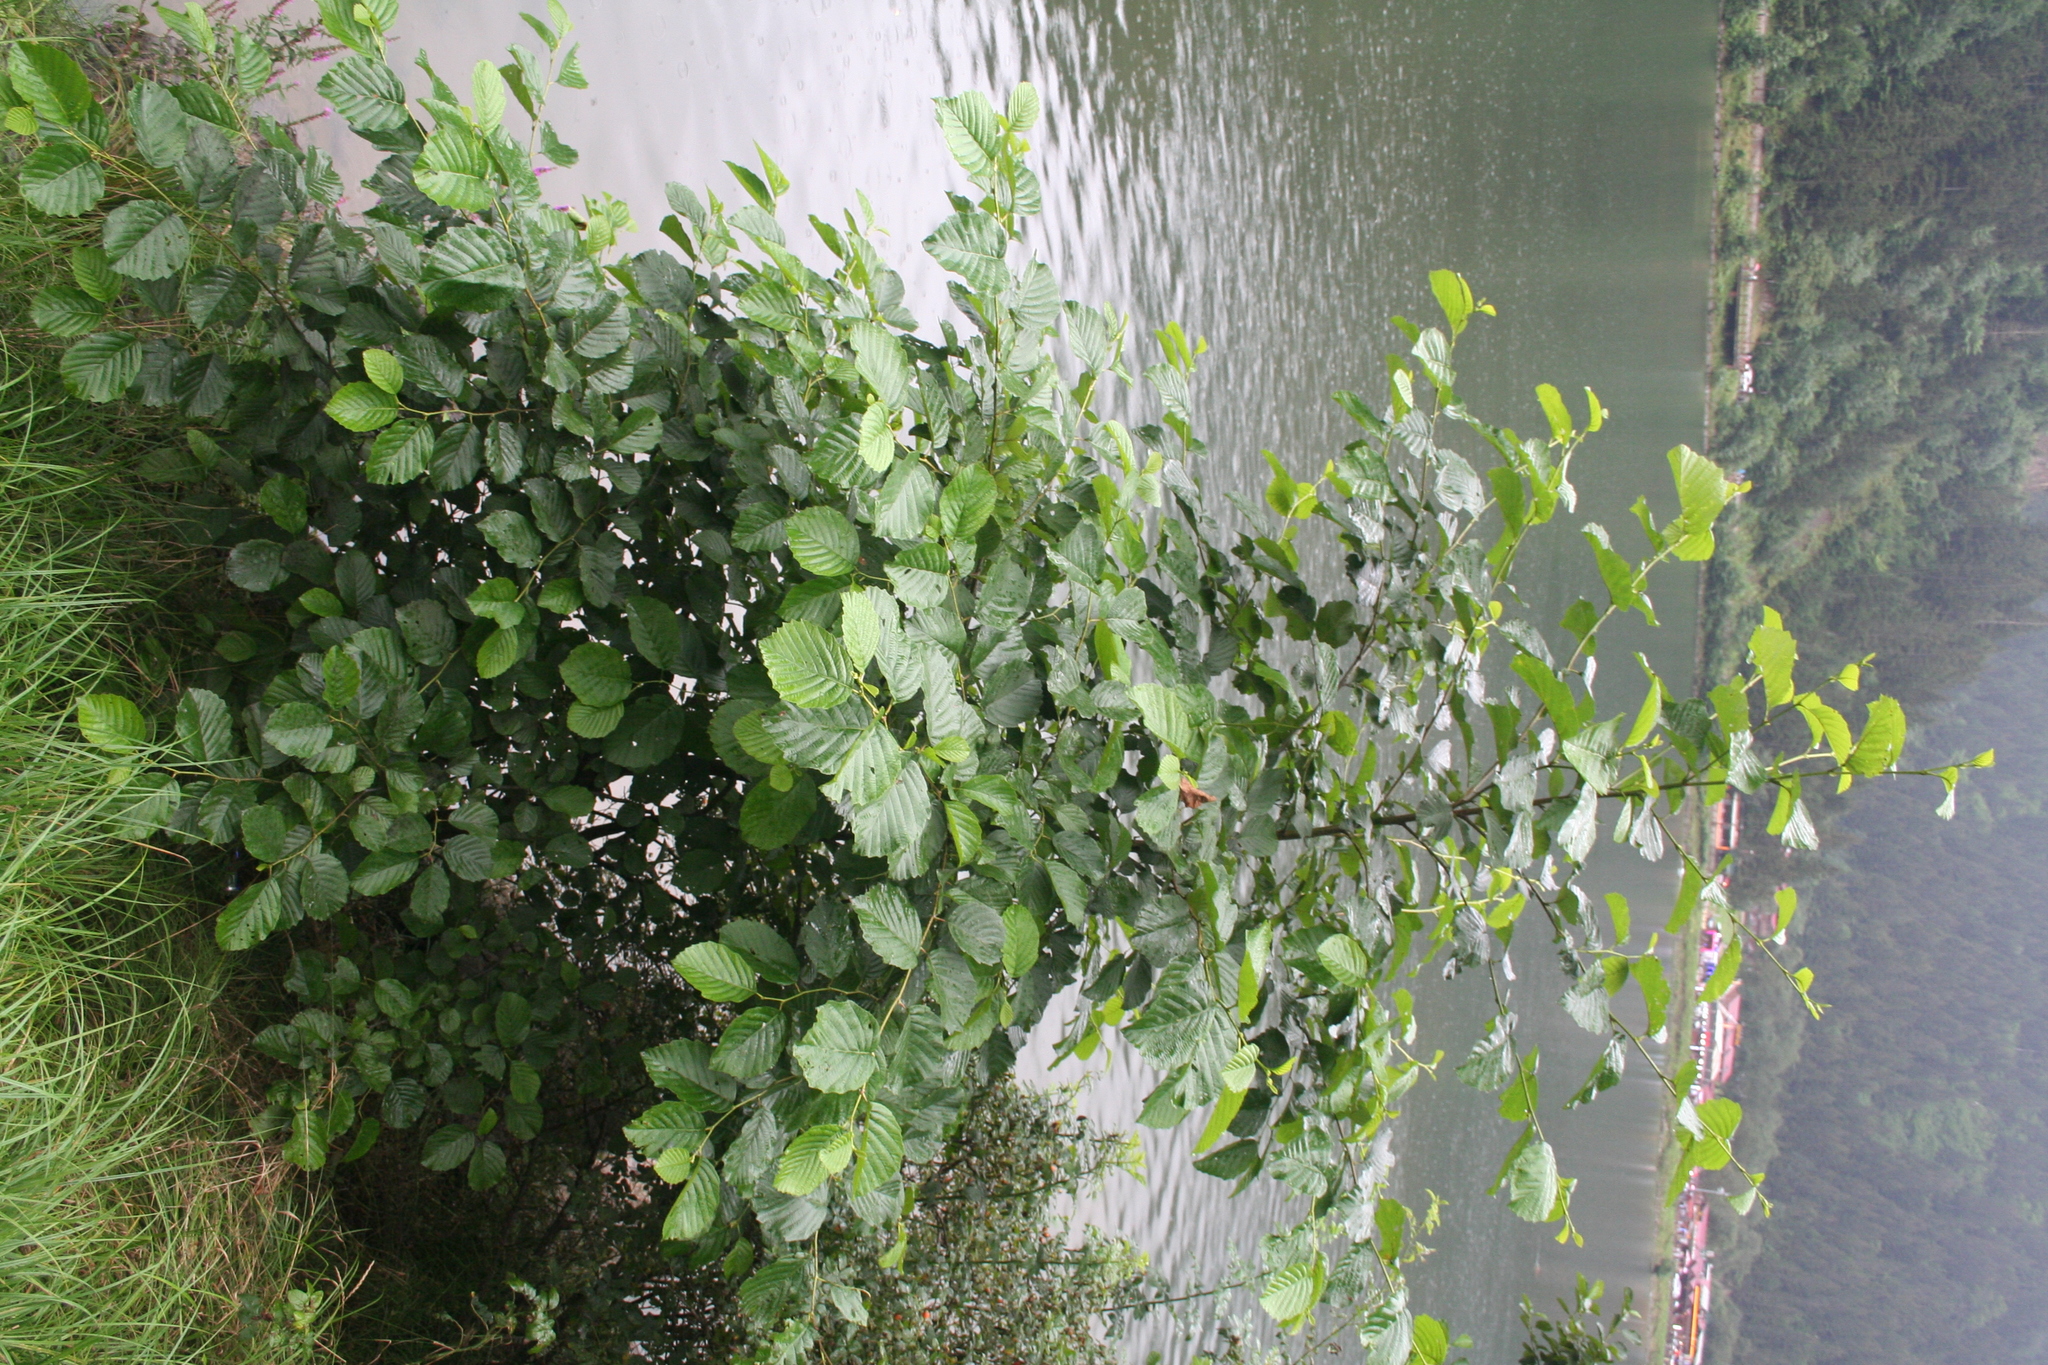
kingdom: Plantae
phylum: Tracheophyta
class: Magnoliopsida
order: Fagales
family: Betulaceae
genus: Alnus
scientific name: Alnus glutinosa
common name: Black alder
